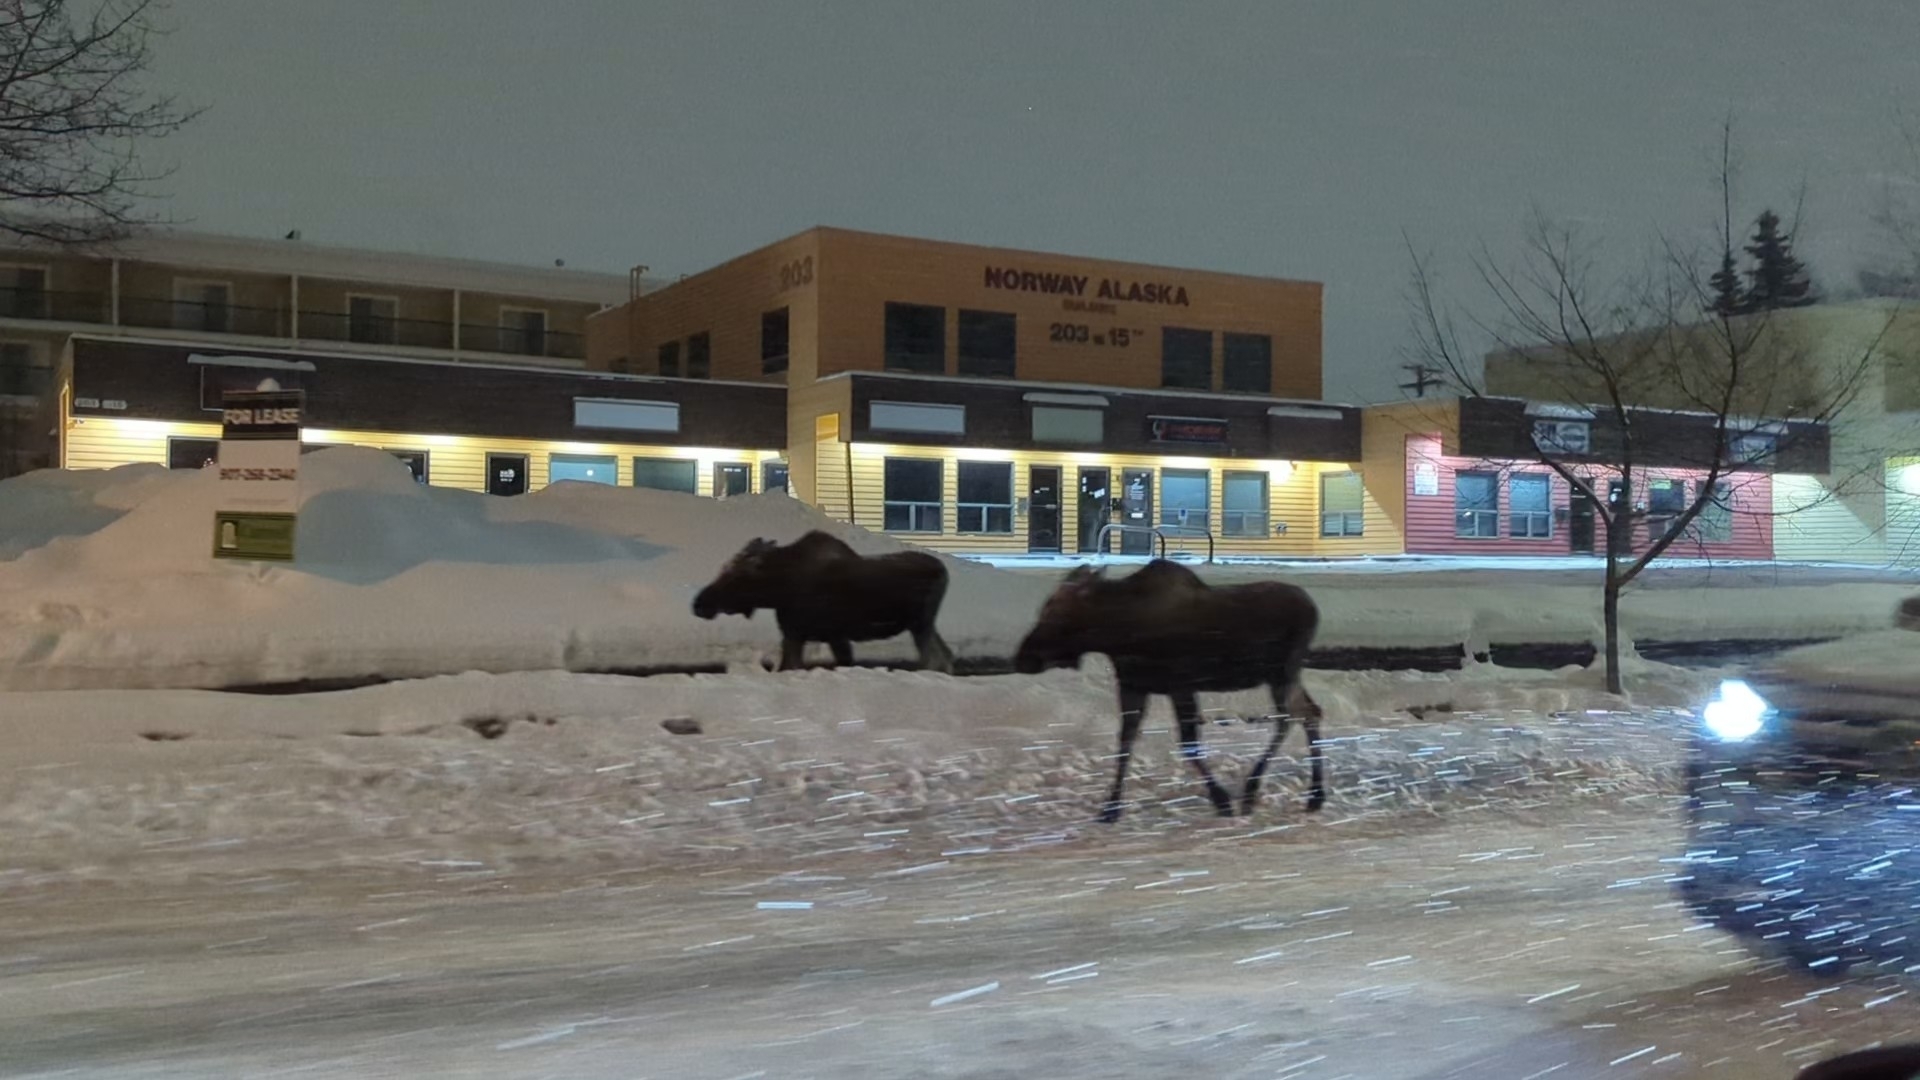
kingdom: Animalia
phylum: Chordata
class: Mammalia
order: Artiodactyla
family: Cervidae
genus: Alces
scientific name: Alces alces
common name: Moose
